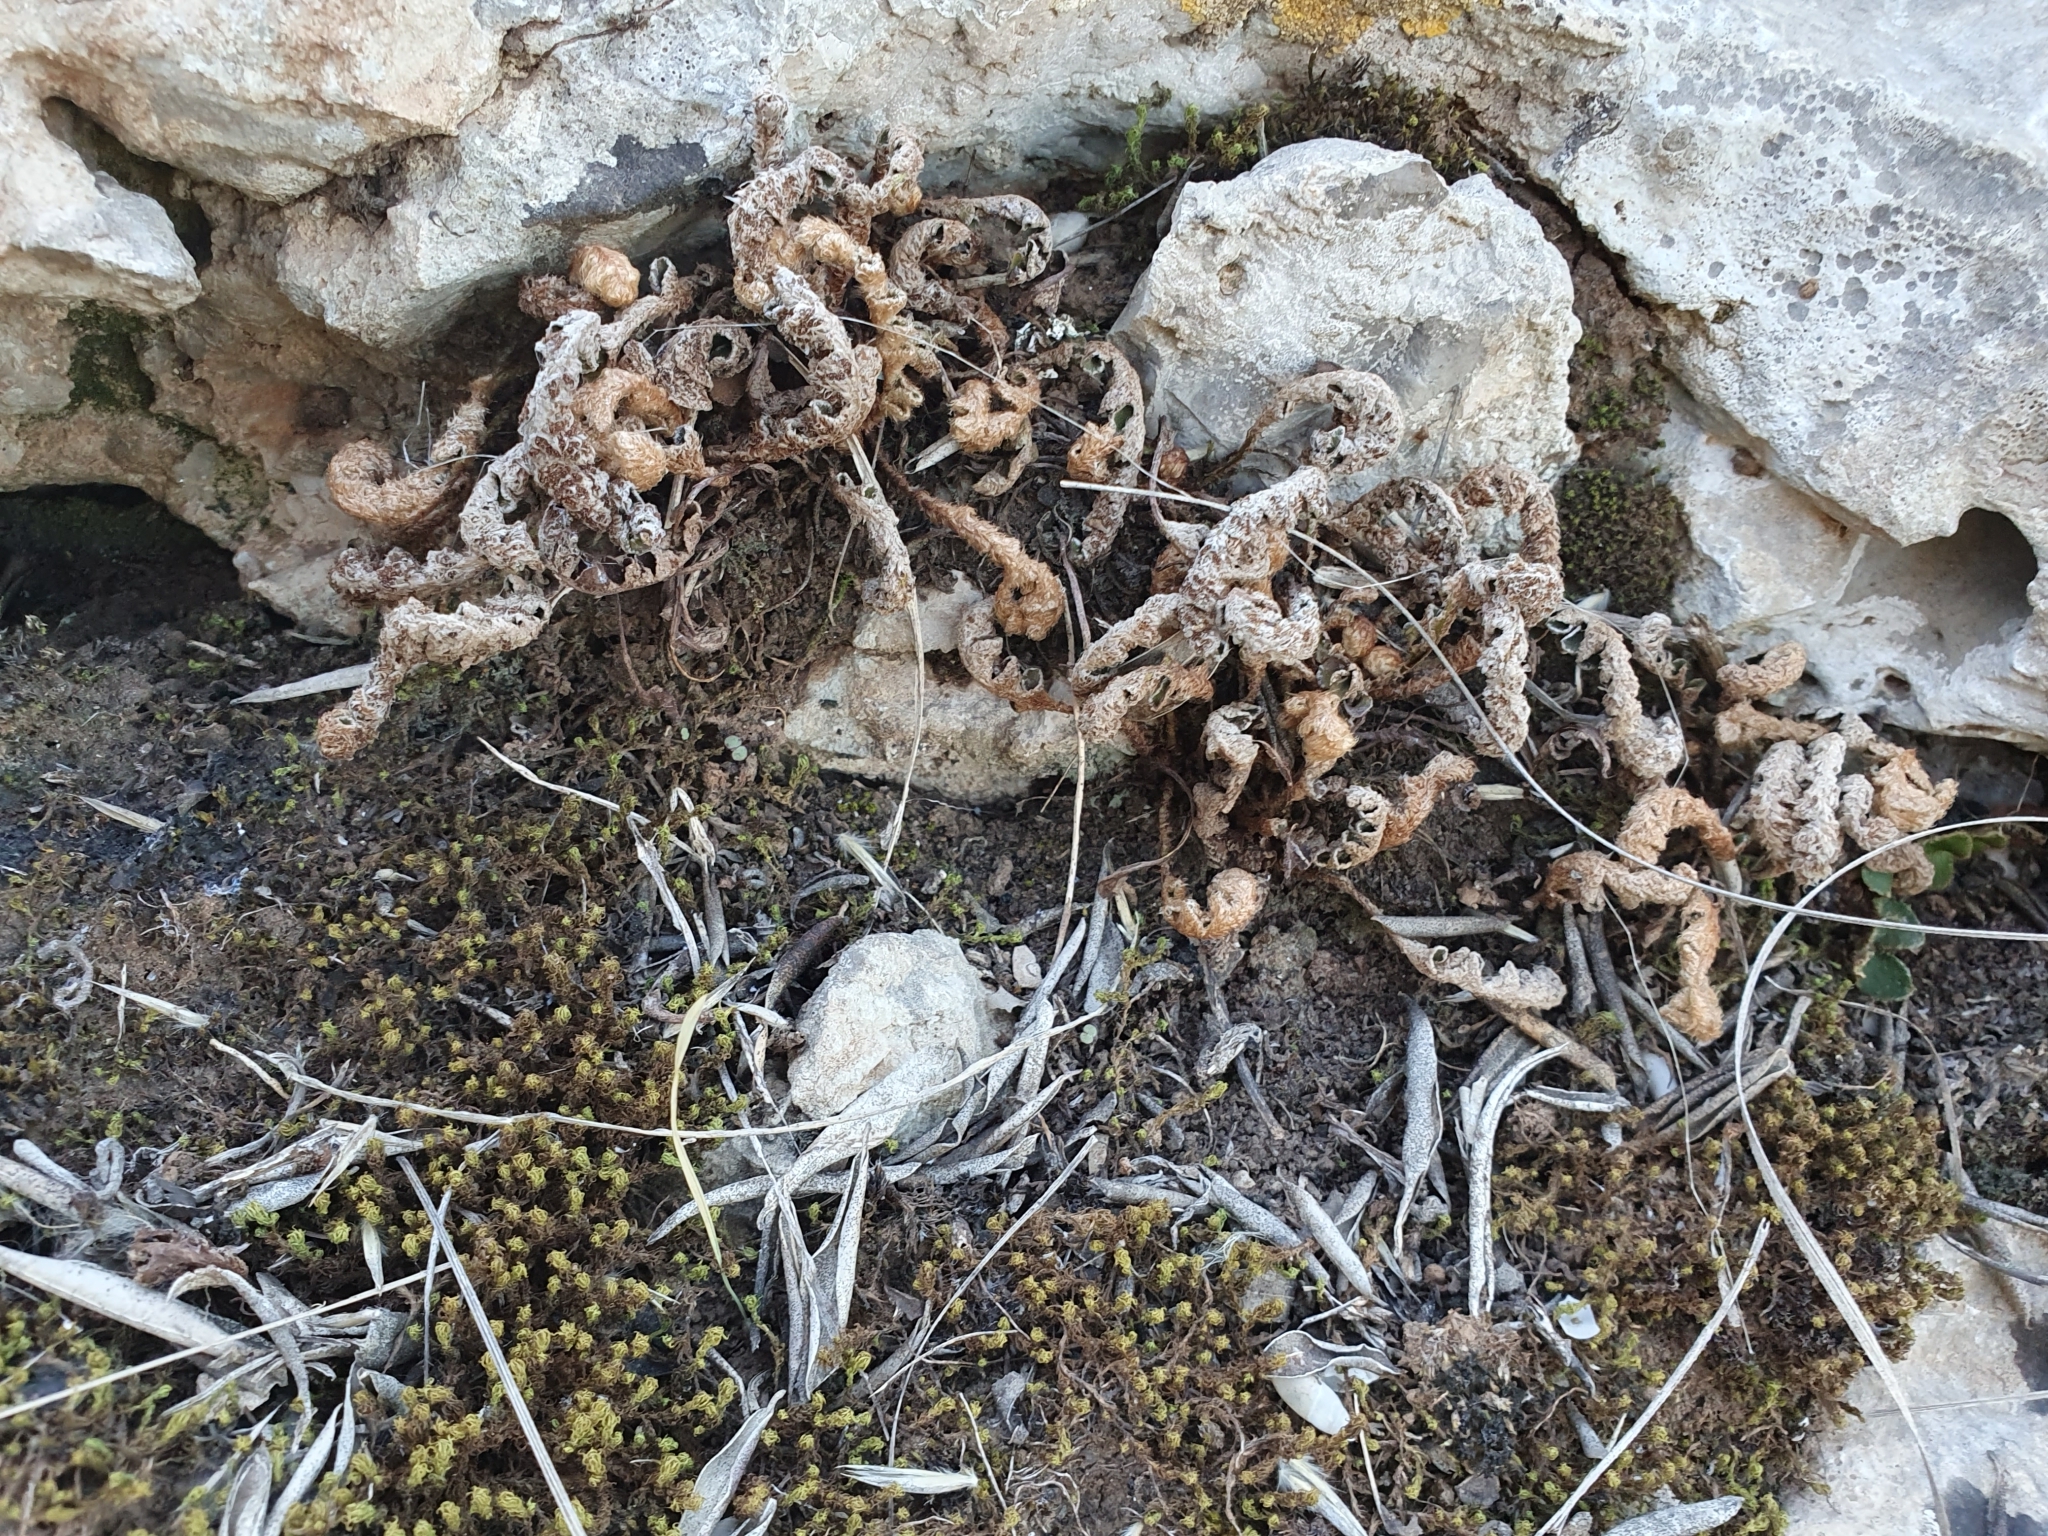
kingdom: Plantae
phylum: Tracheophyta
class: Polypodiopsida
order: Polypodiales
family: Aspleniaceae
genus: Asplenium
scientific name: Asplenium ceterach
